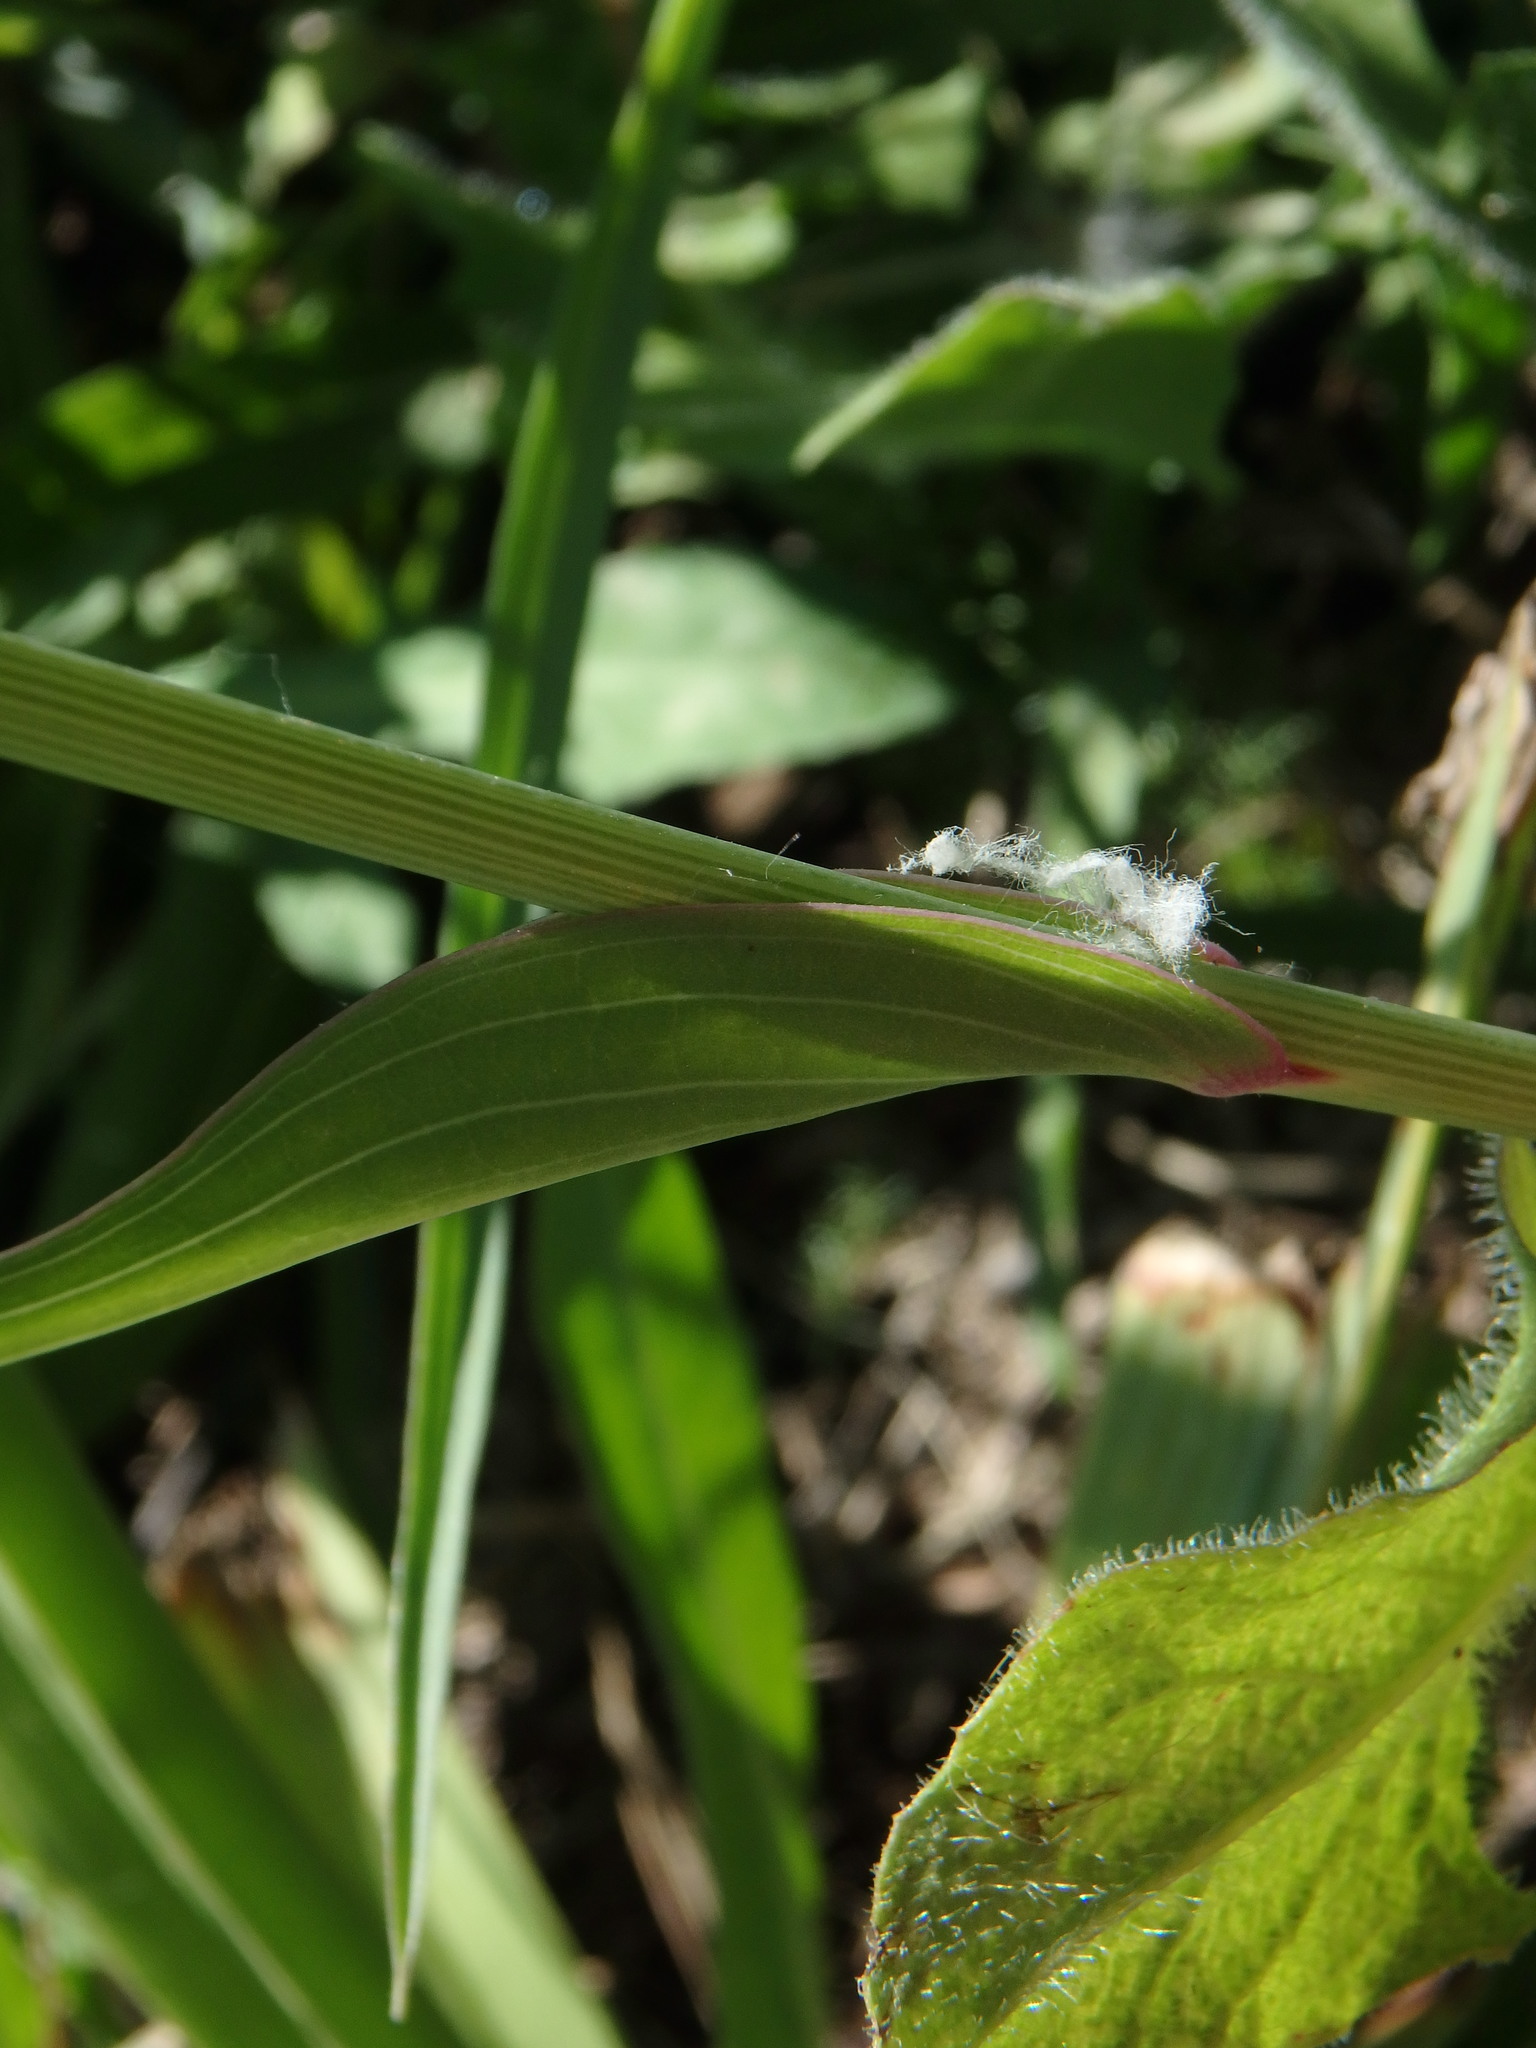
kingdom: Plantae
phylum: Tracheophyta
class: Magnoliopsida
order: Asterales
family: Asteraceae
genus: Tragopogon
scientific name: Tragopogon porrifolius
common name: Salsify
